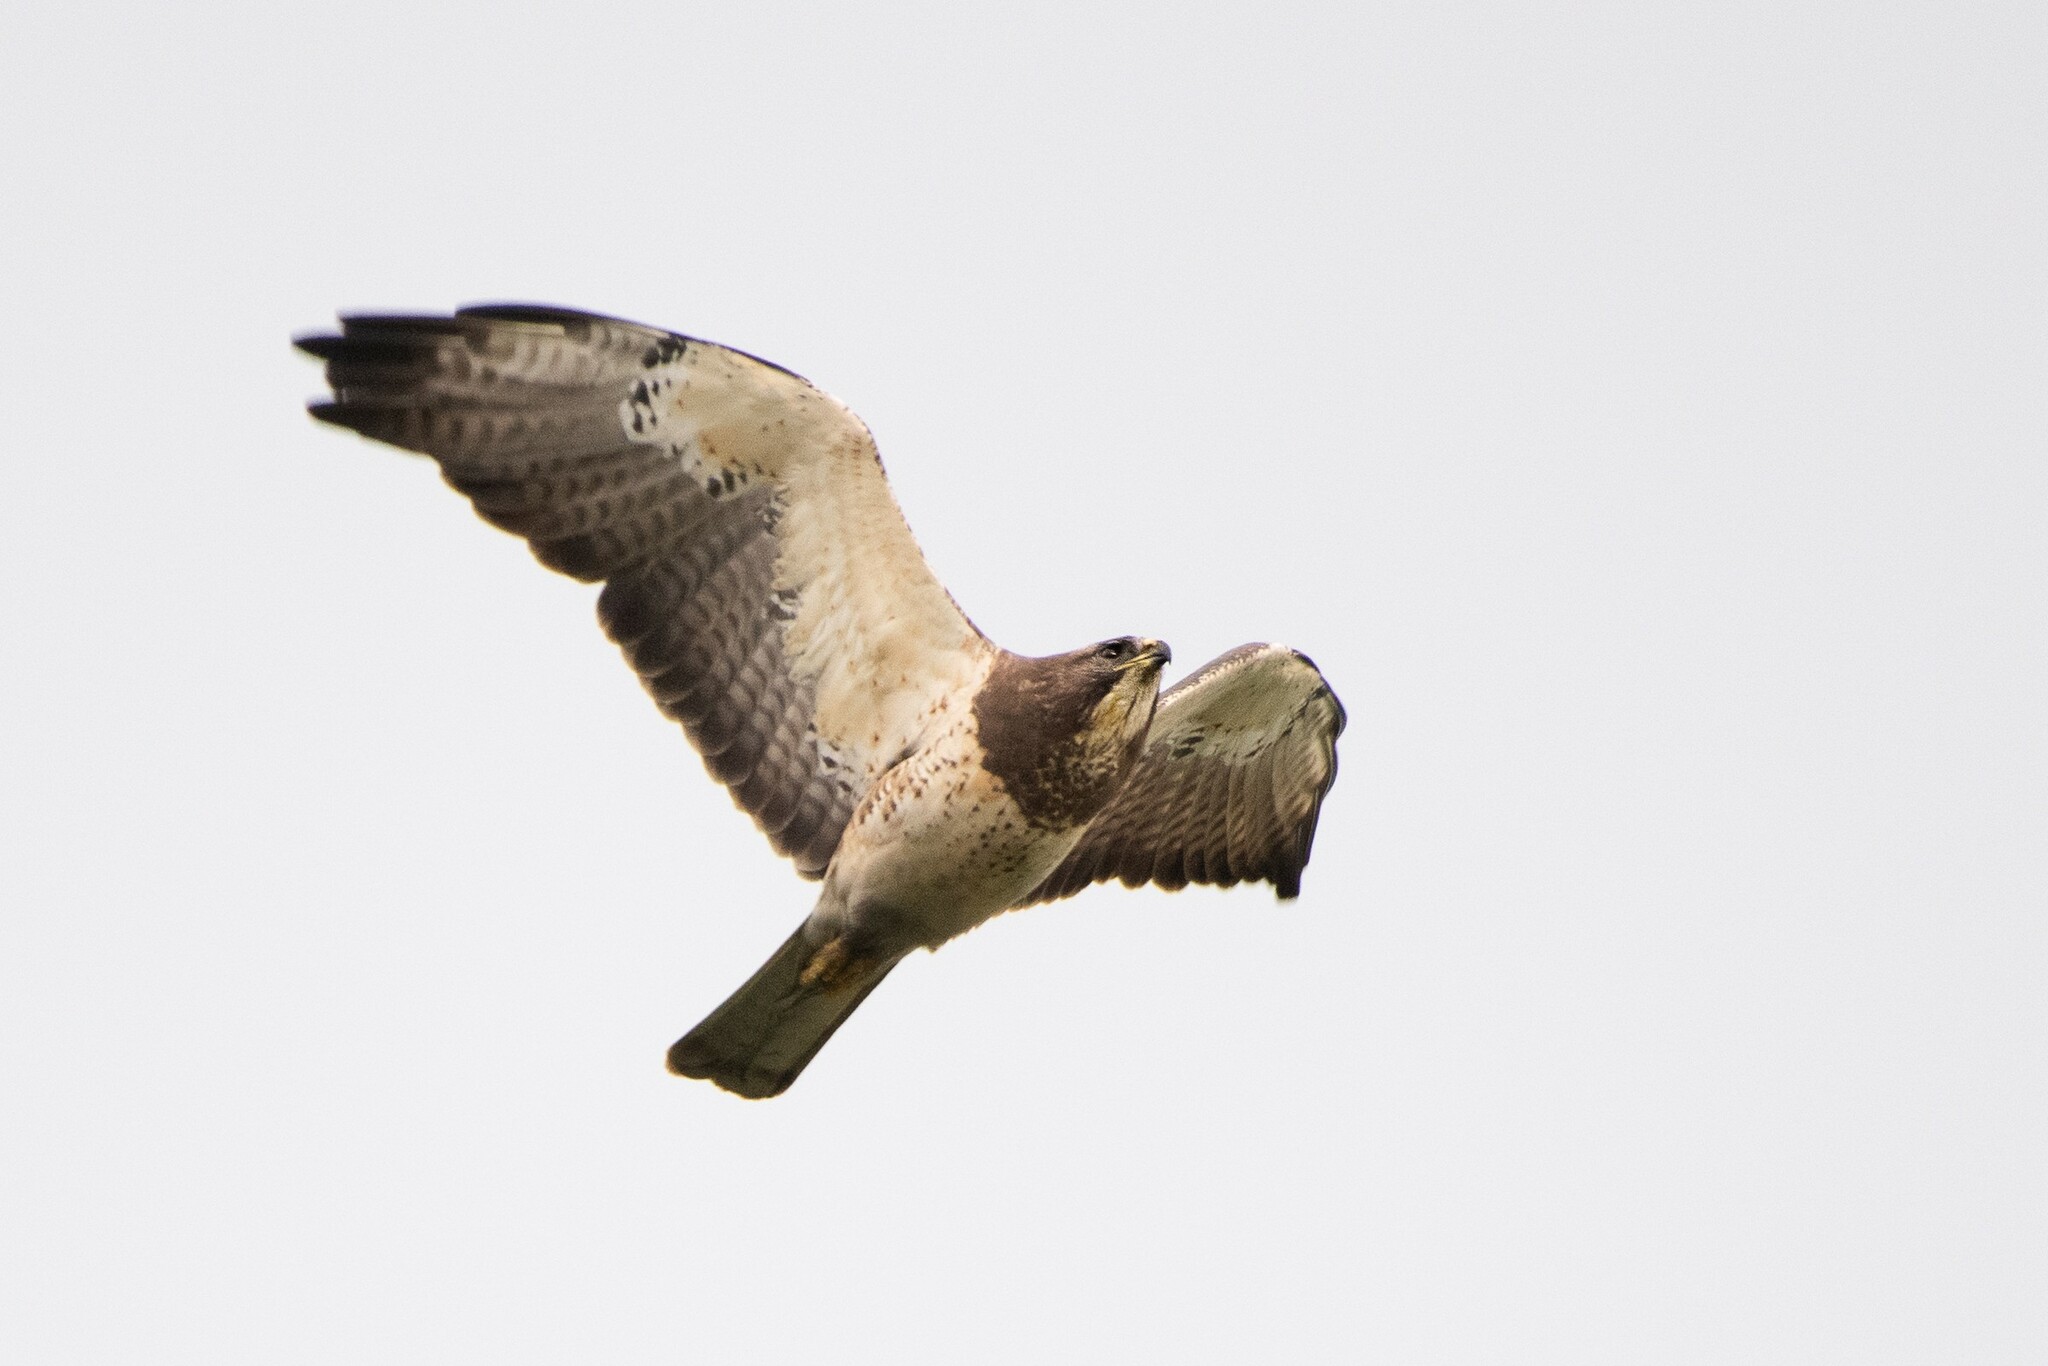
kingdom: Animalia
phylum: Chordata
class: Aves
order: Accipitriformes
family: Accipitridae
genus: Buteo
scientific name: Buteo swainsoni
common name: Swainson's hawk
